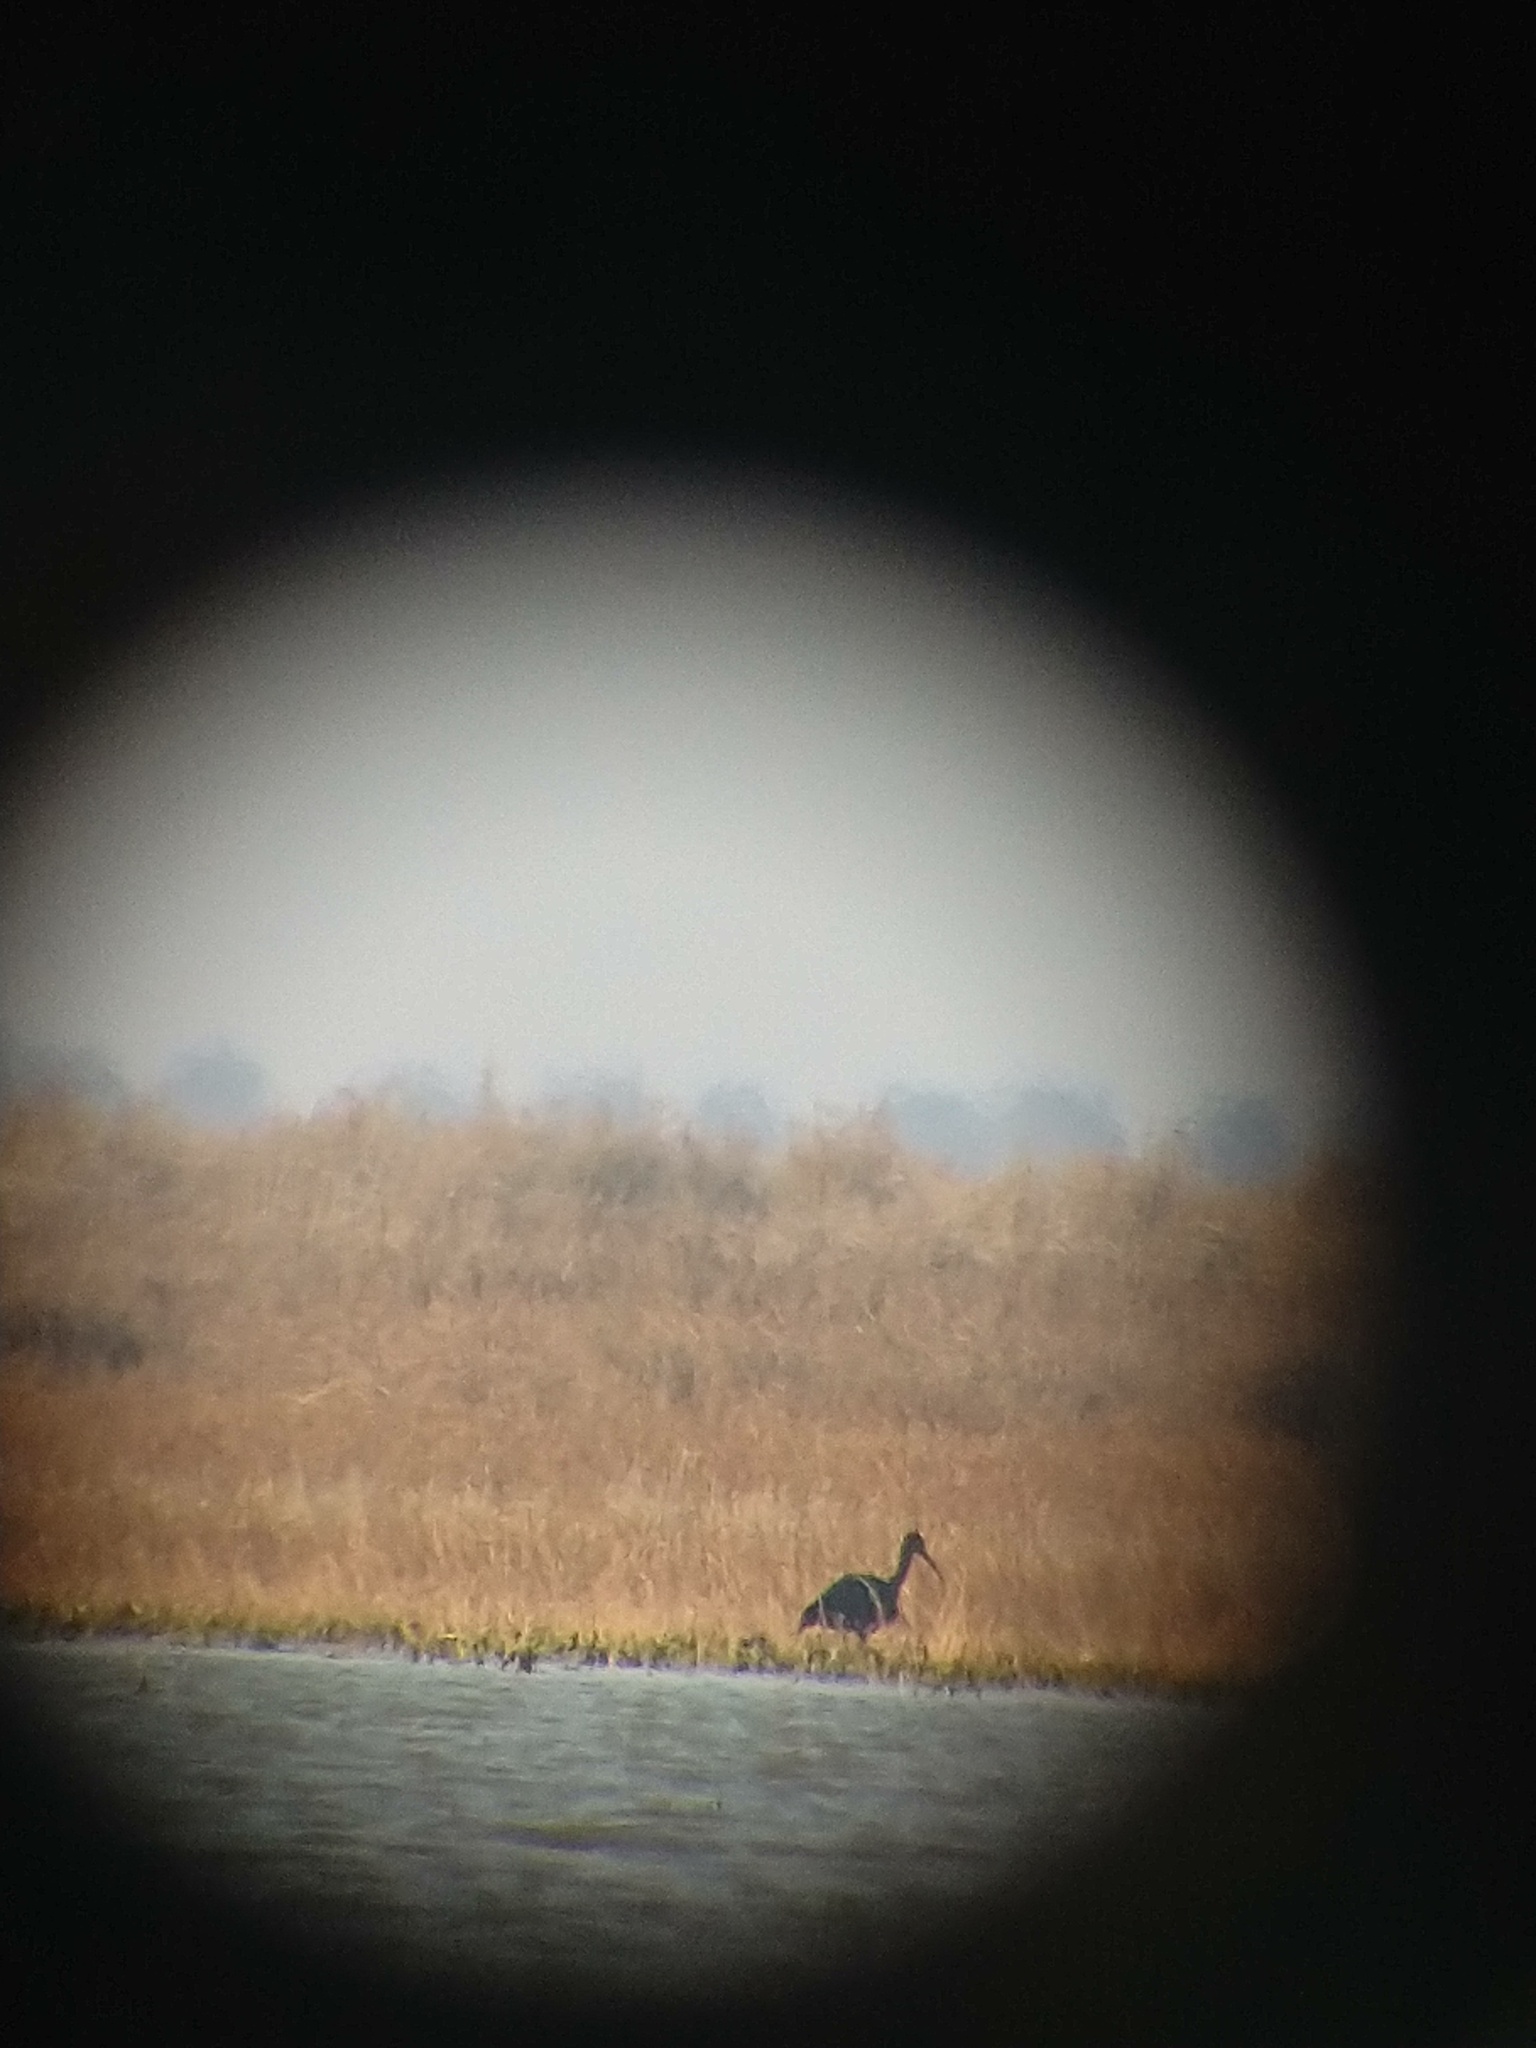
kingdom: Animalia
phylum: Chordata
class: Aves
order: Pelecaniformes
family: Threskiornithidae
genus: Plegadis
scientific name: Plegadis falcinellus
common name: Glossy ibis
